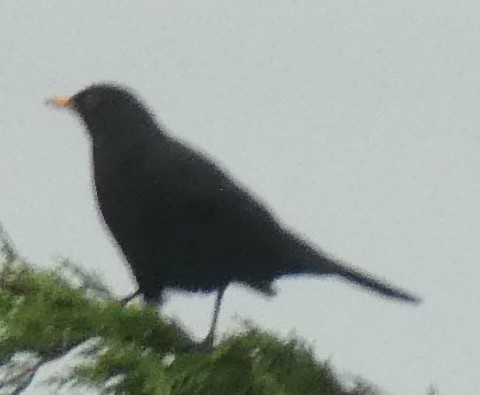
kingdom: Animalia
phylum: Chordata
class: Aves
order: Passeriformes
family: Turdidae
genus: Turdus
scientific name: Turdus merula
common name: Common blackbird
